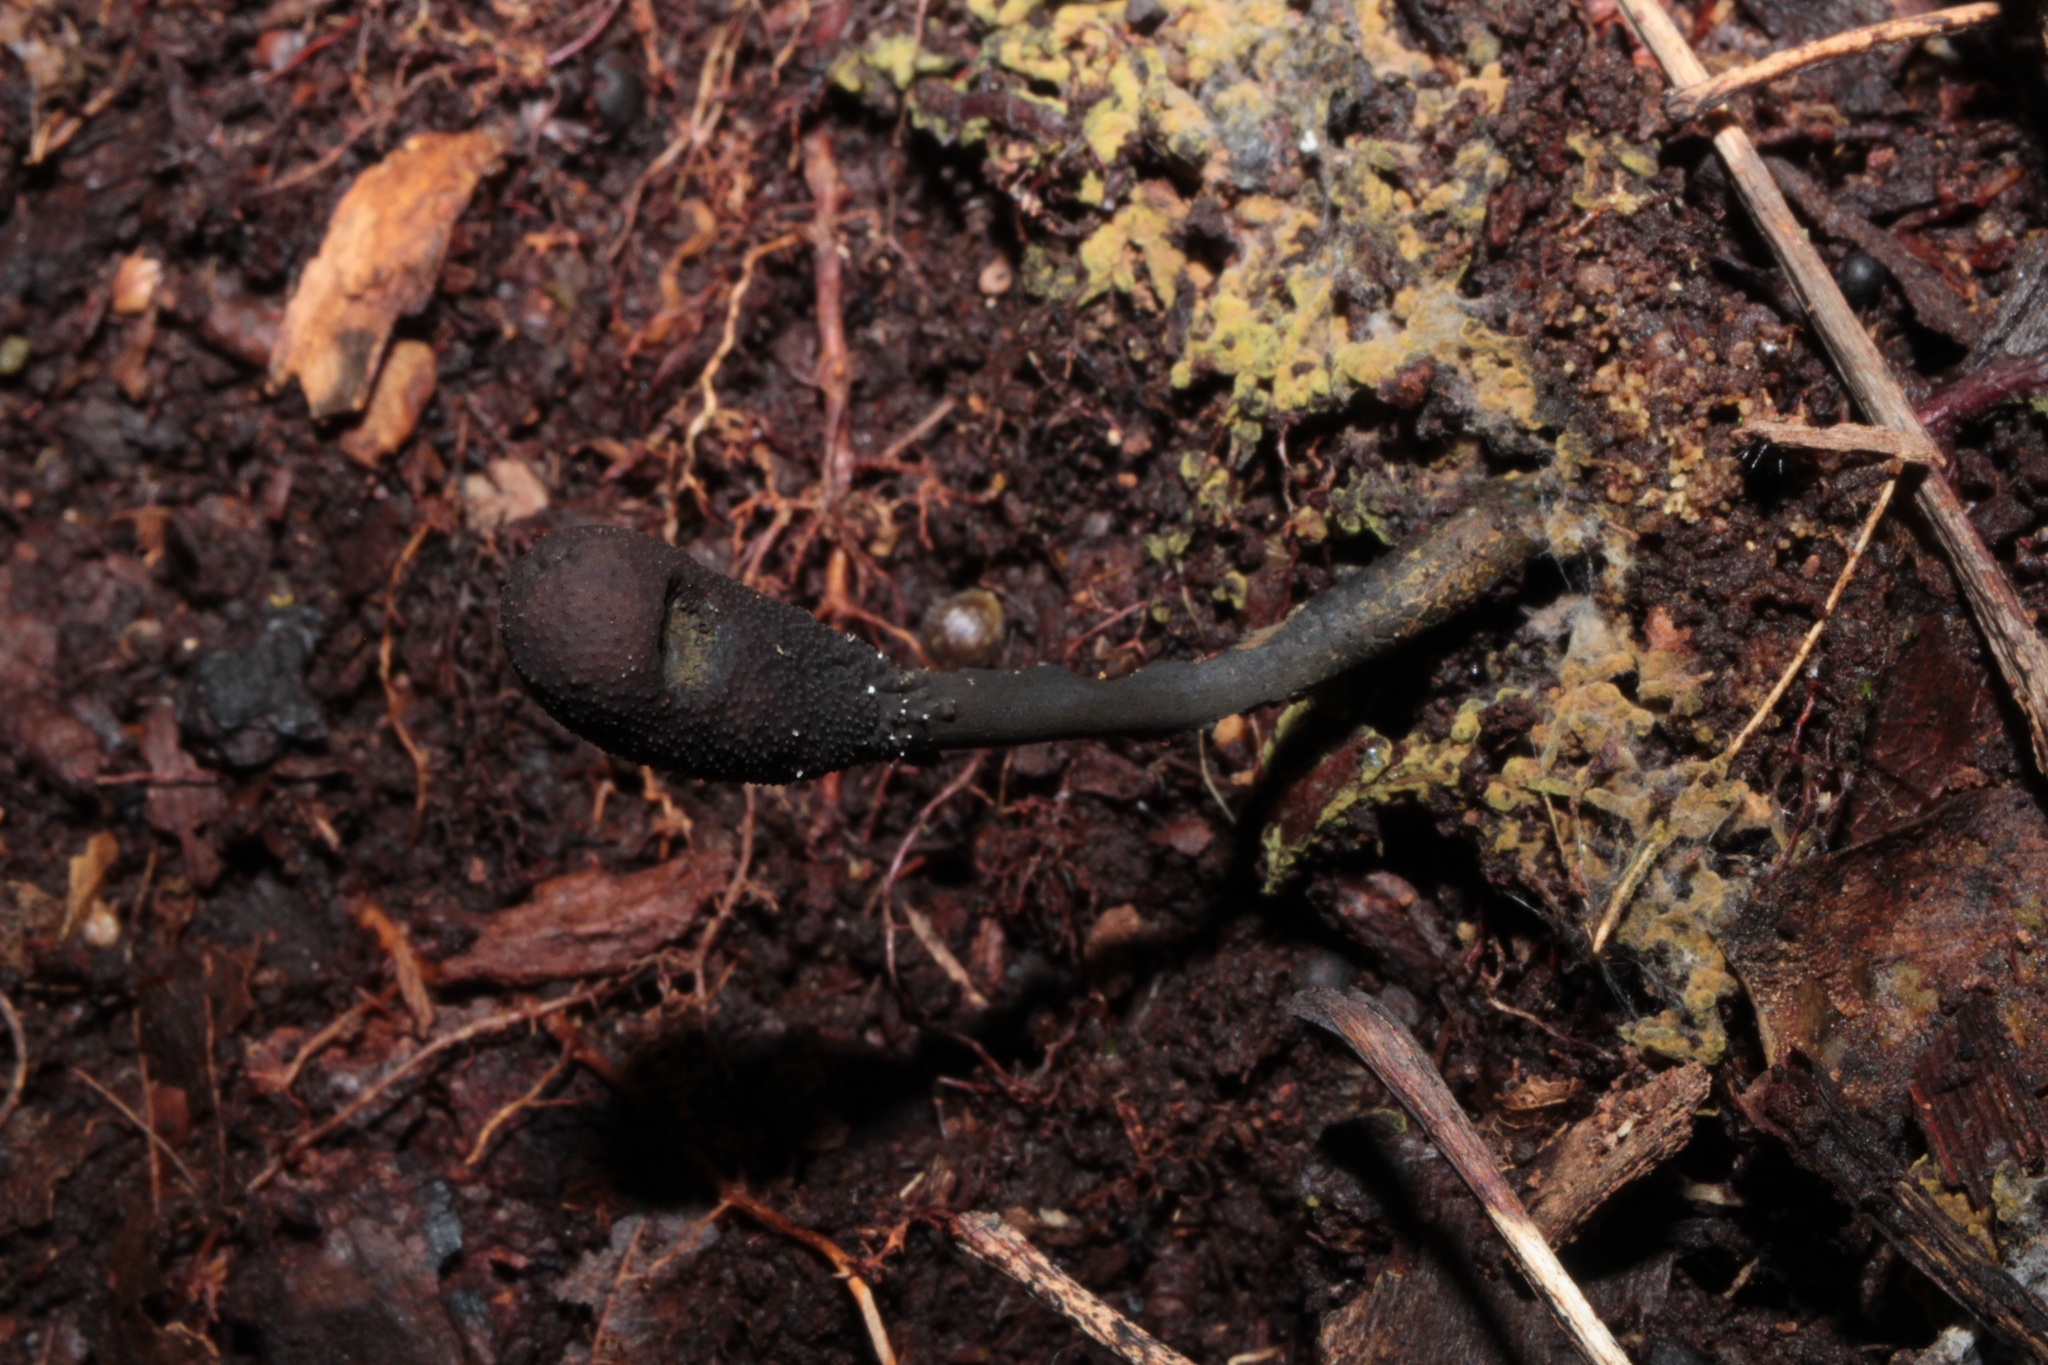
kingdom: Fungi
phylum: Ascomycota
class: Sordariomycetes
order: Hypocreales
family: Ophiocordycipitaceae
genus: Tolypocladium
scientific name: Tolypocladium ophioglossoides
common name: Snaketongue truffleclub
